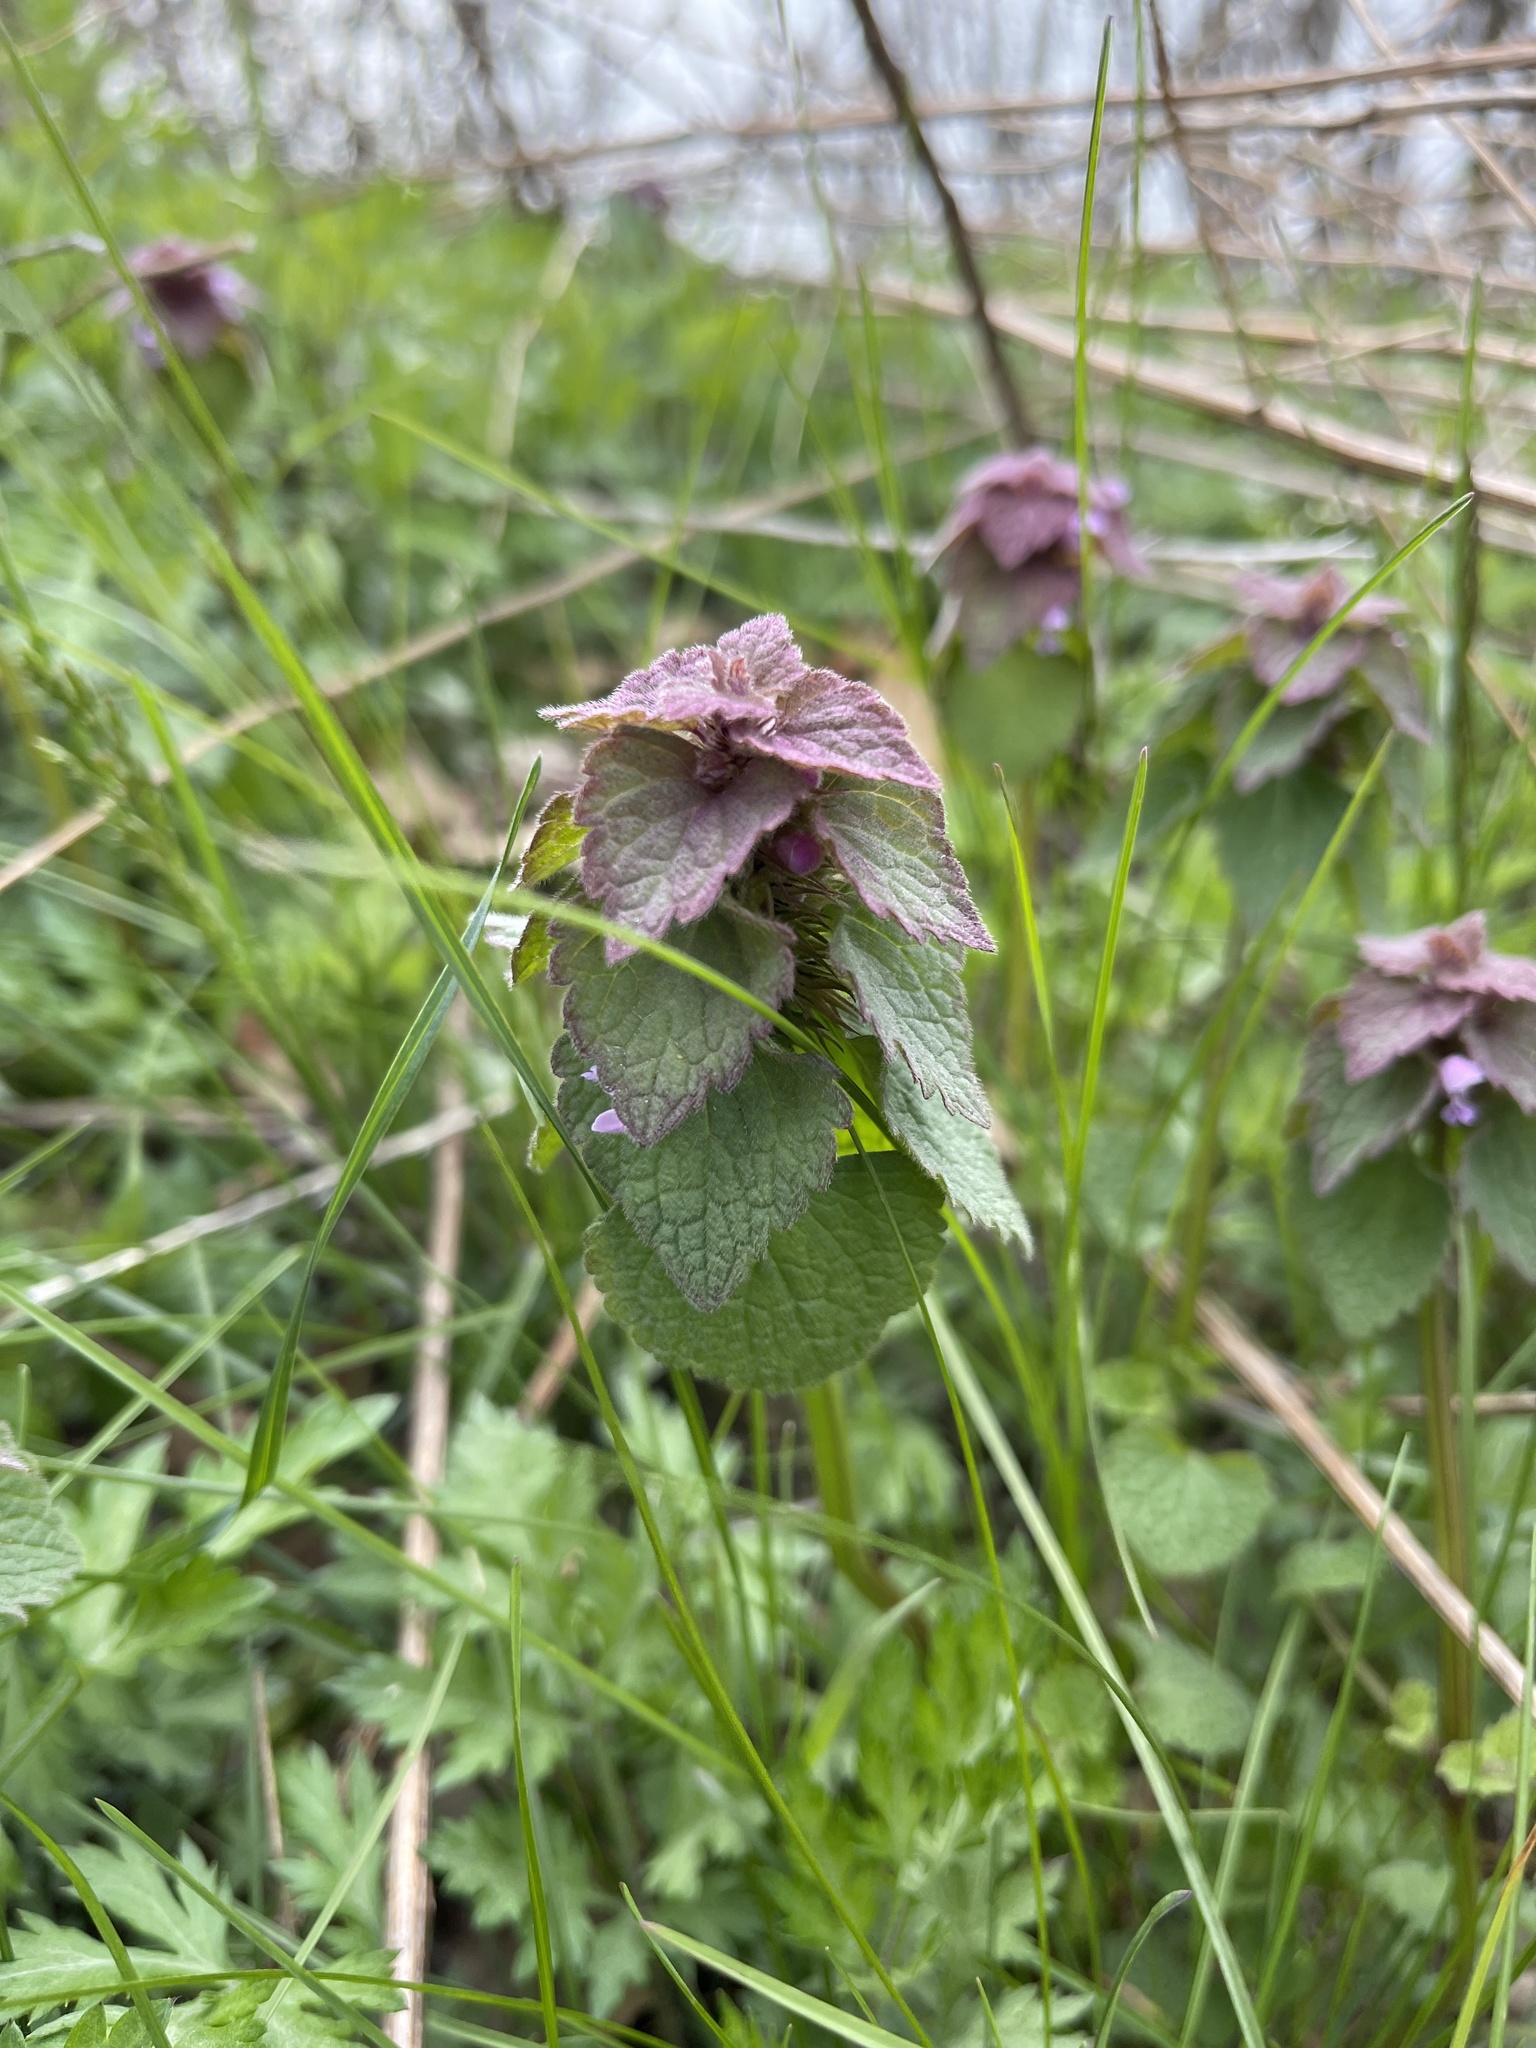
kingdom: Plantae
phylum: Tracheophyta
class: Magnoliopsida
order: Lamiales
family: Lamiaceae
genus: Lamium
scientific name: Lamium purpureum
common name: Red dead-nettle
